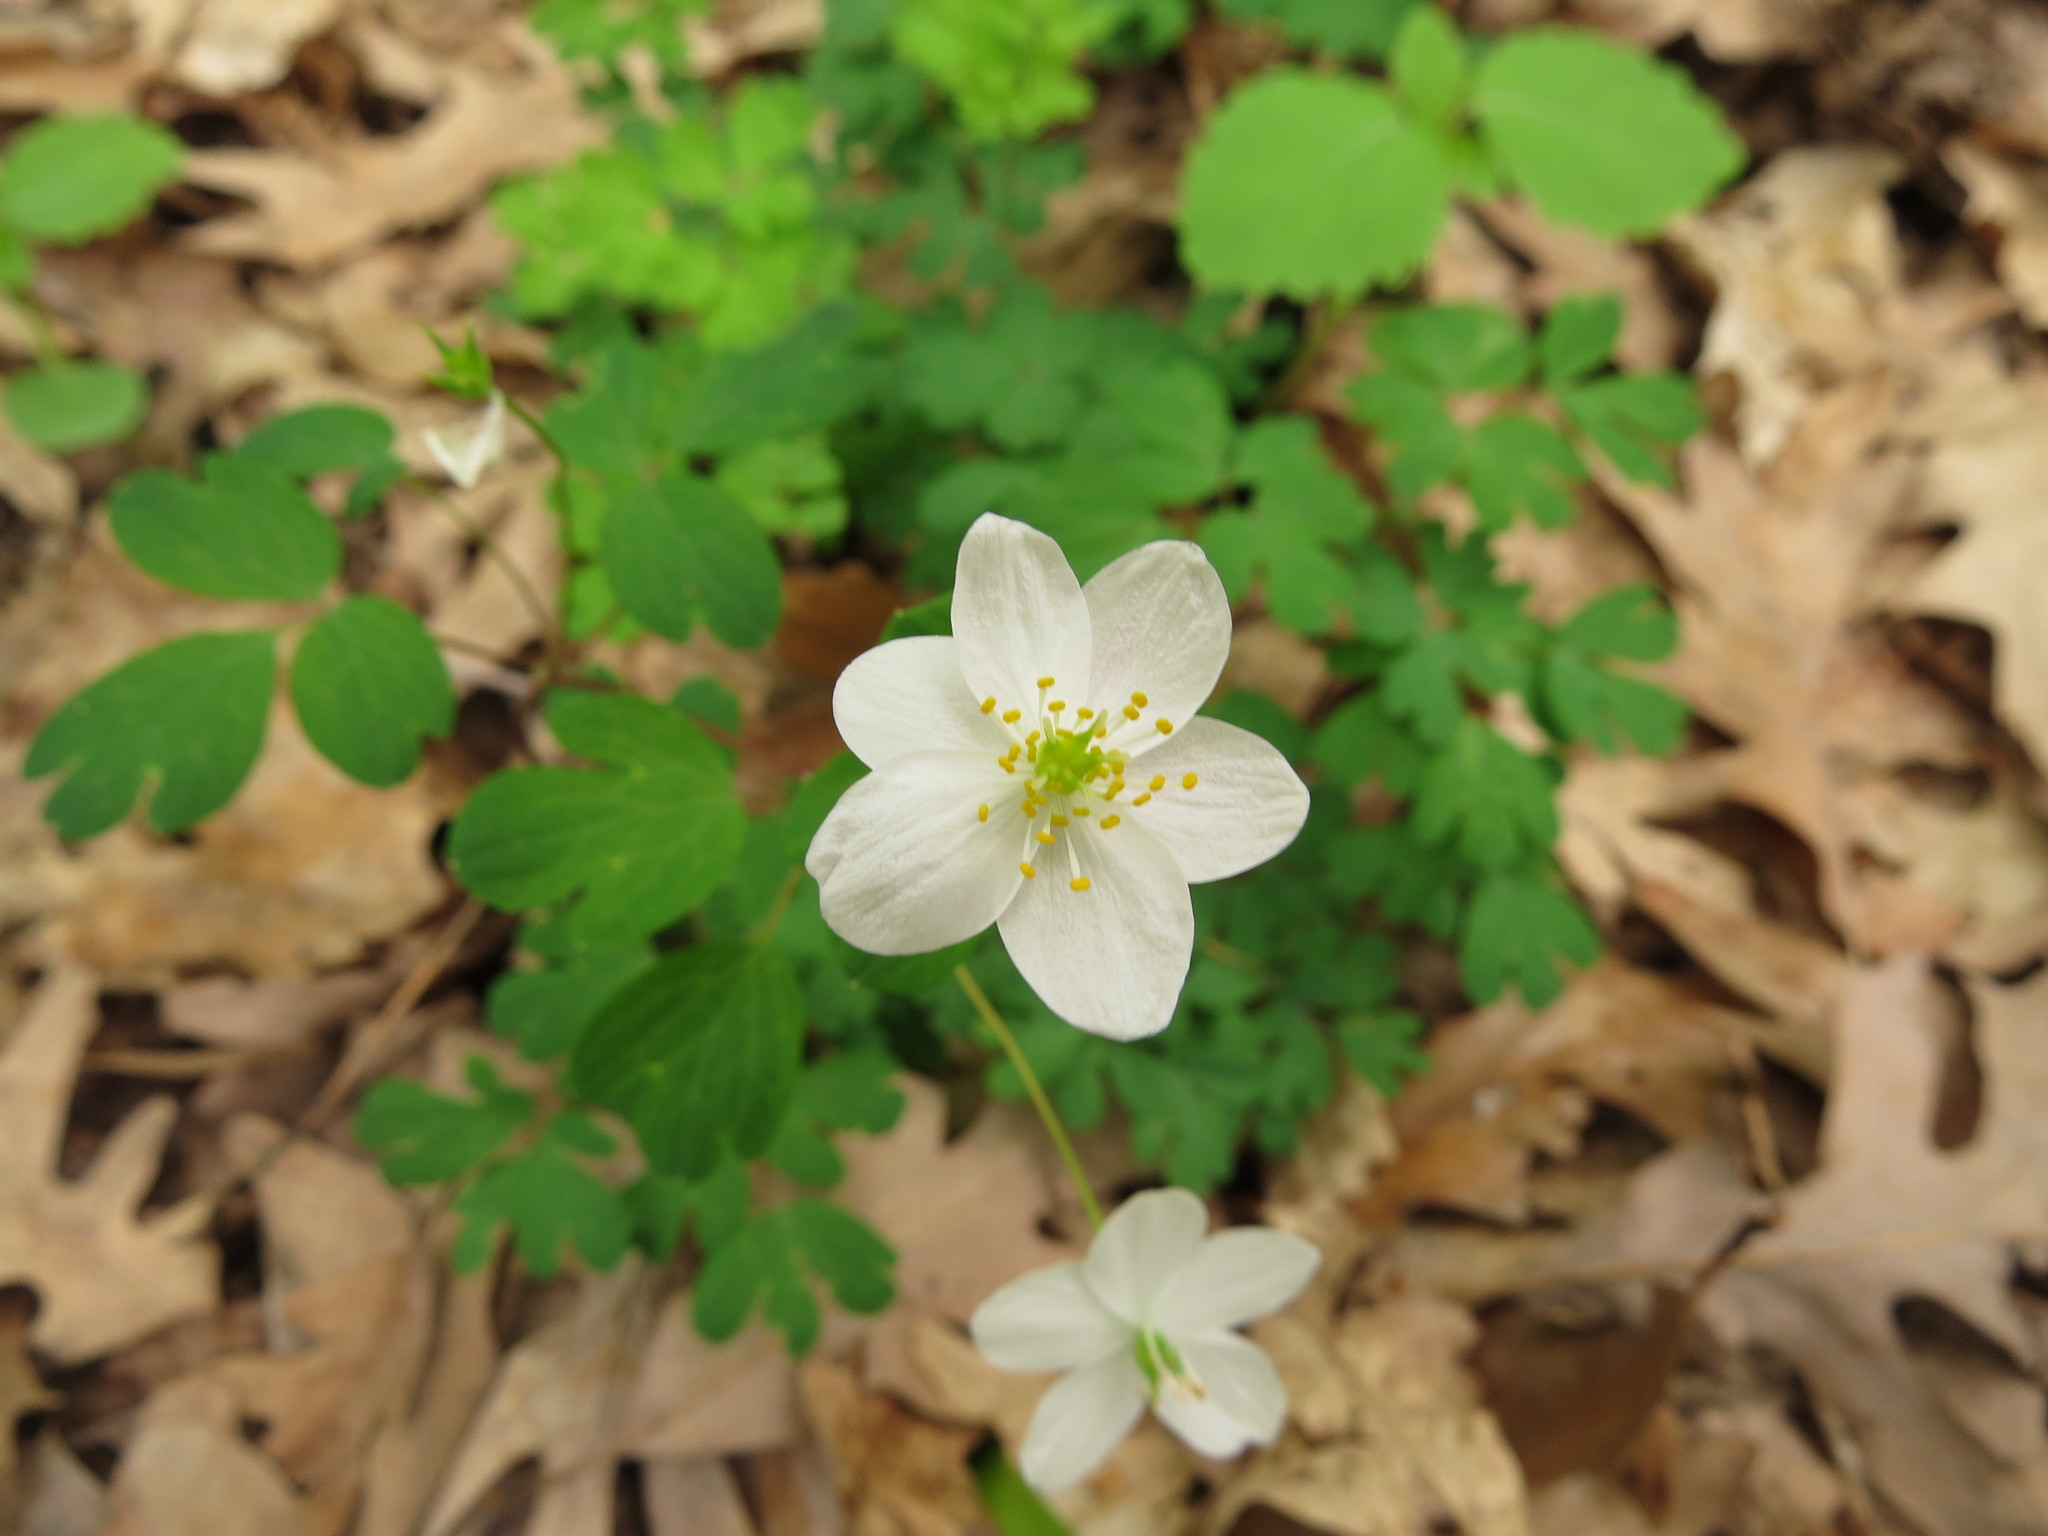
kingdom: Plantae
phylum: Tracheophyta
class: Magnoliopsida
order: Ranunculales
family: Ranunculaceae
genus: Enemion
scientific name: Enemion biternatum
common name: Eastern false rue-anemone
